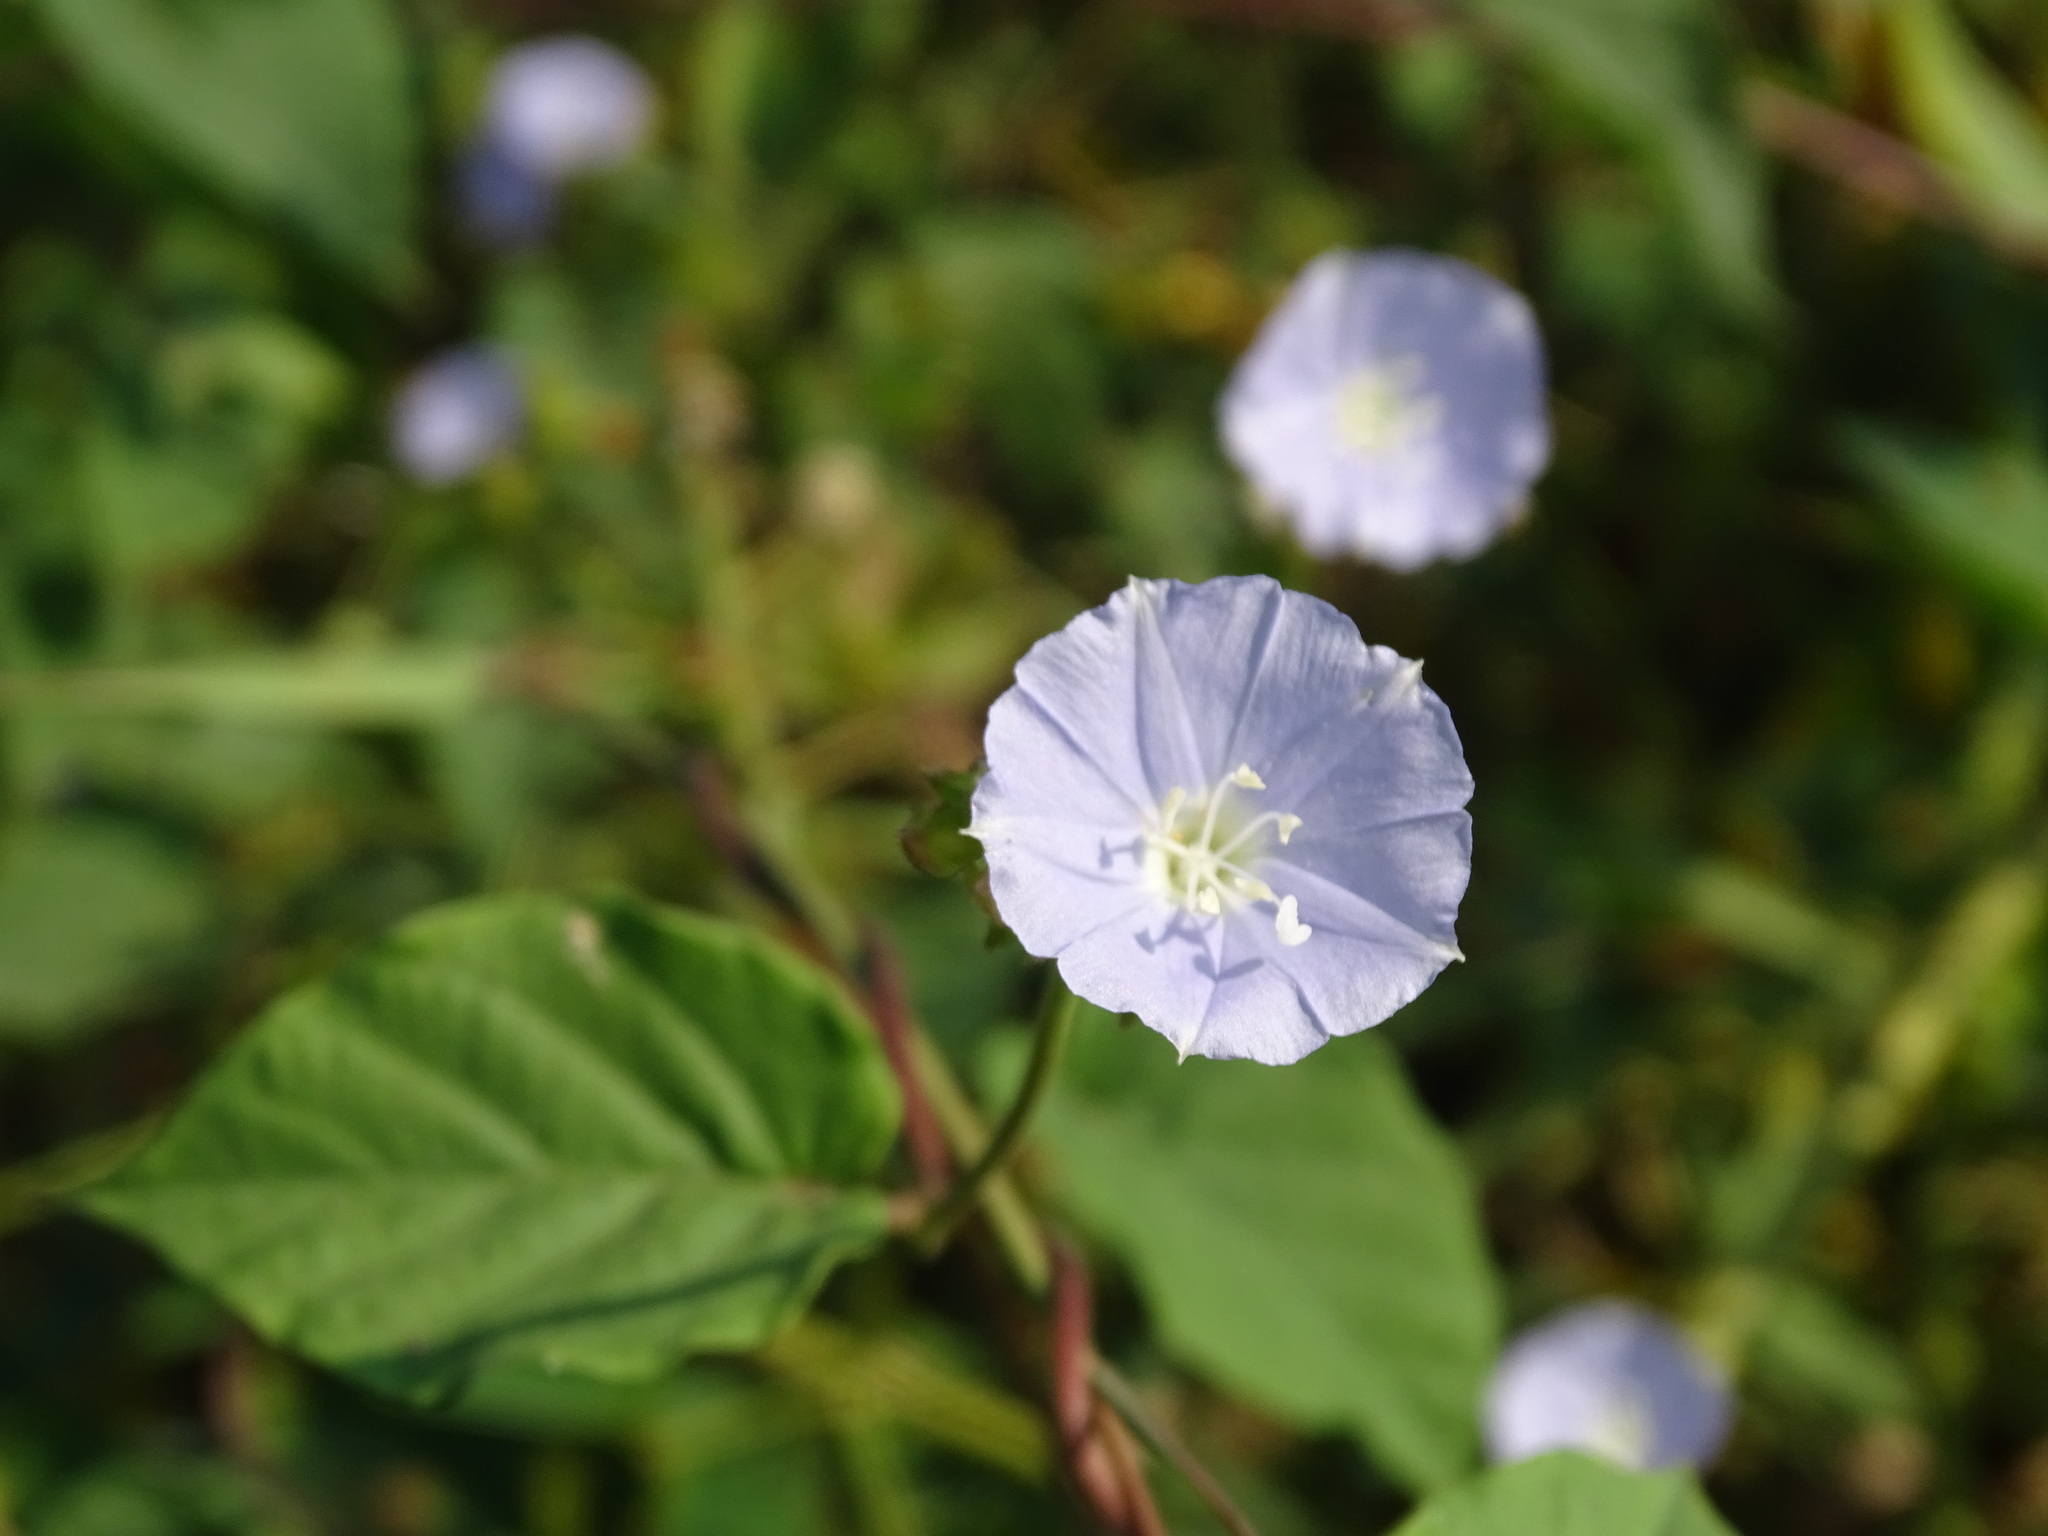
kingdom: Plantae
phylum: Tracheophyta
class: Magnoliopsida
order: Solanales
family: Convolvulaceae
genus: Jacquemontia
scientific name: Jacquemontia oaxacana
